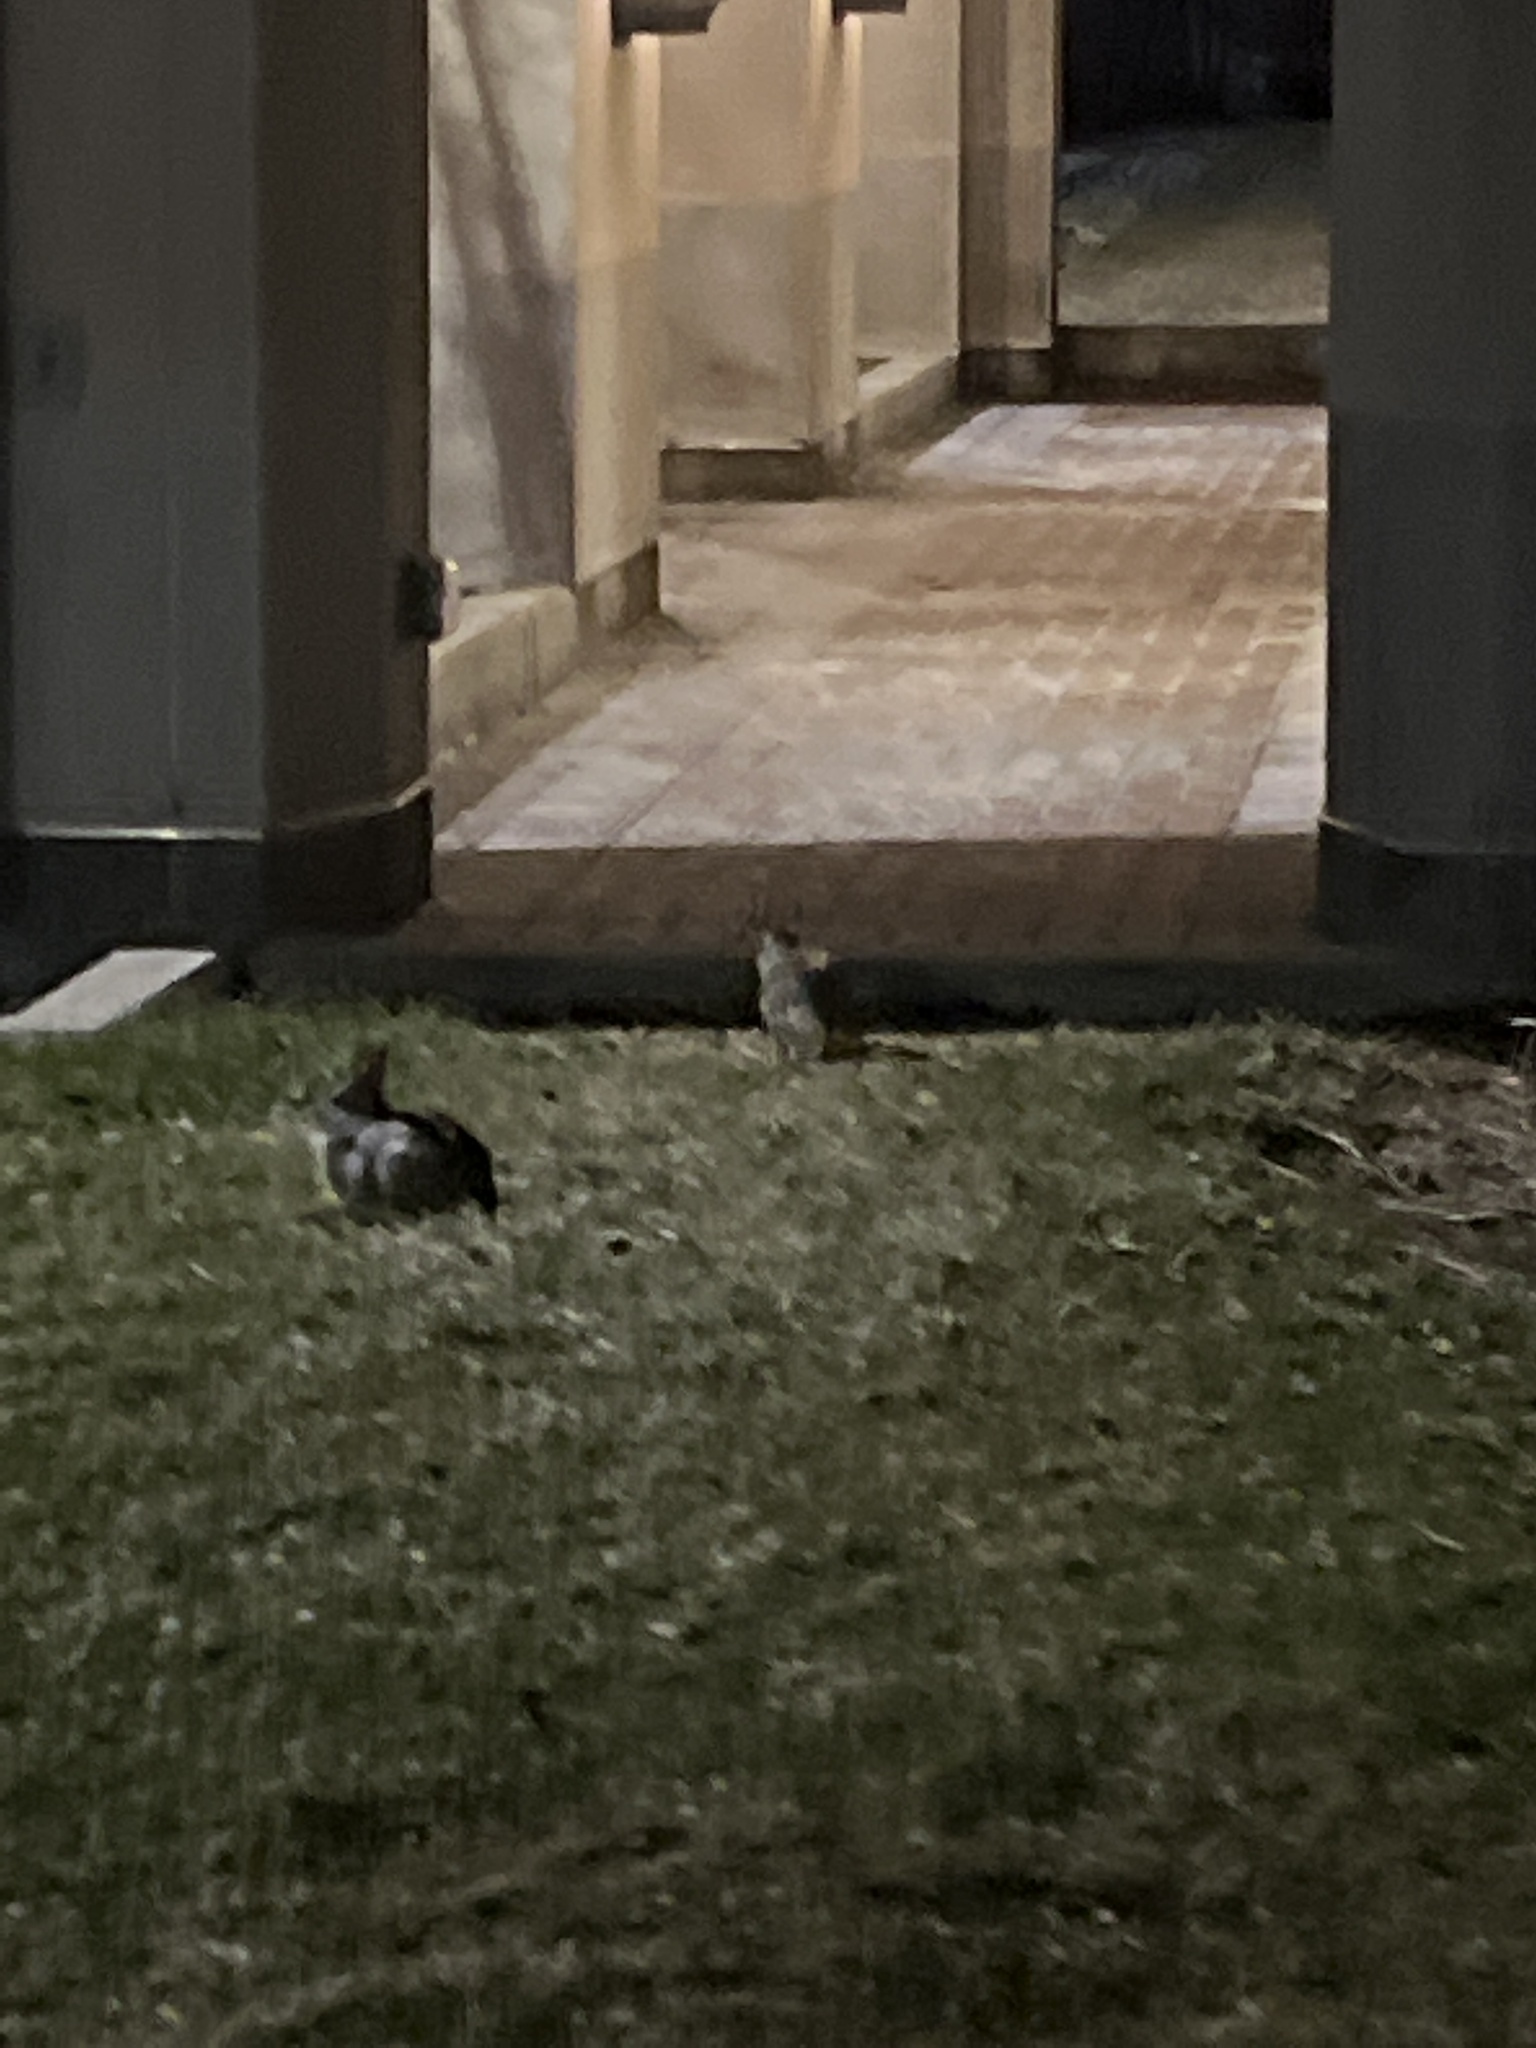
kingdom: Animalia
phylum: Chordata
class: Mammalia
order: Lagomorpha
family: Leporidae
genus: Sylvilagus
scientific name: Sylvilagus floridanus
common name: Eastern cottontail
